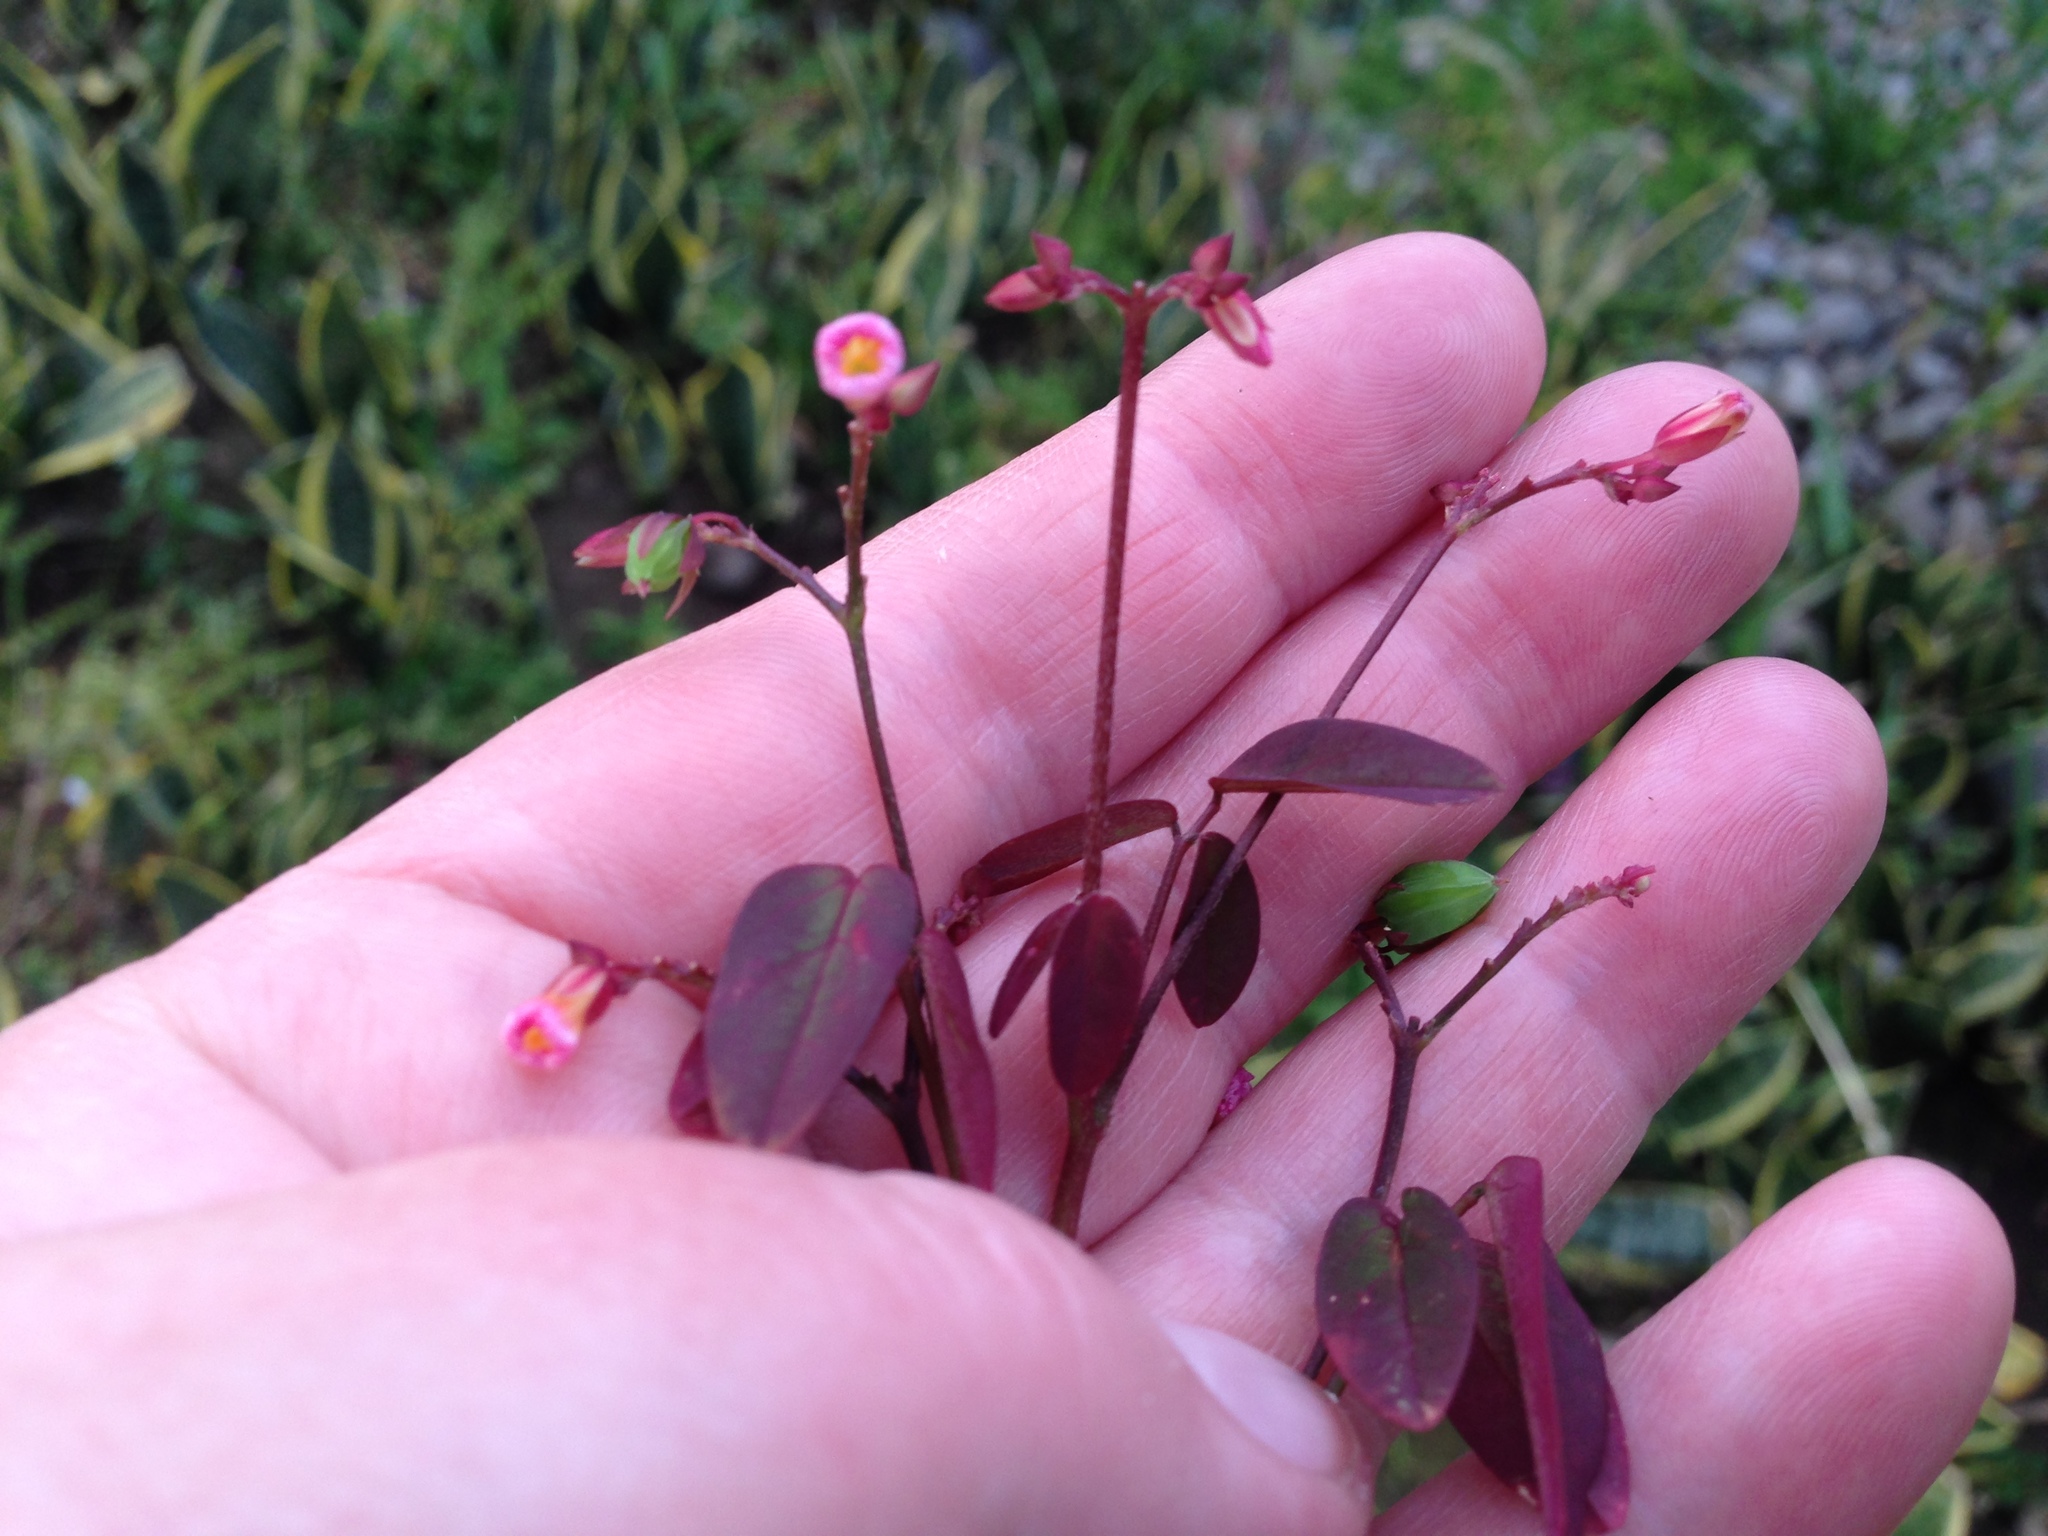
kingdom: Plantae
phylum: Tracheophyta
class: Magnoliopsida
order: Oxalidales
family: Oxalidaceae
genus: Oxalis
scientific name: Oxalis barrelieri
